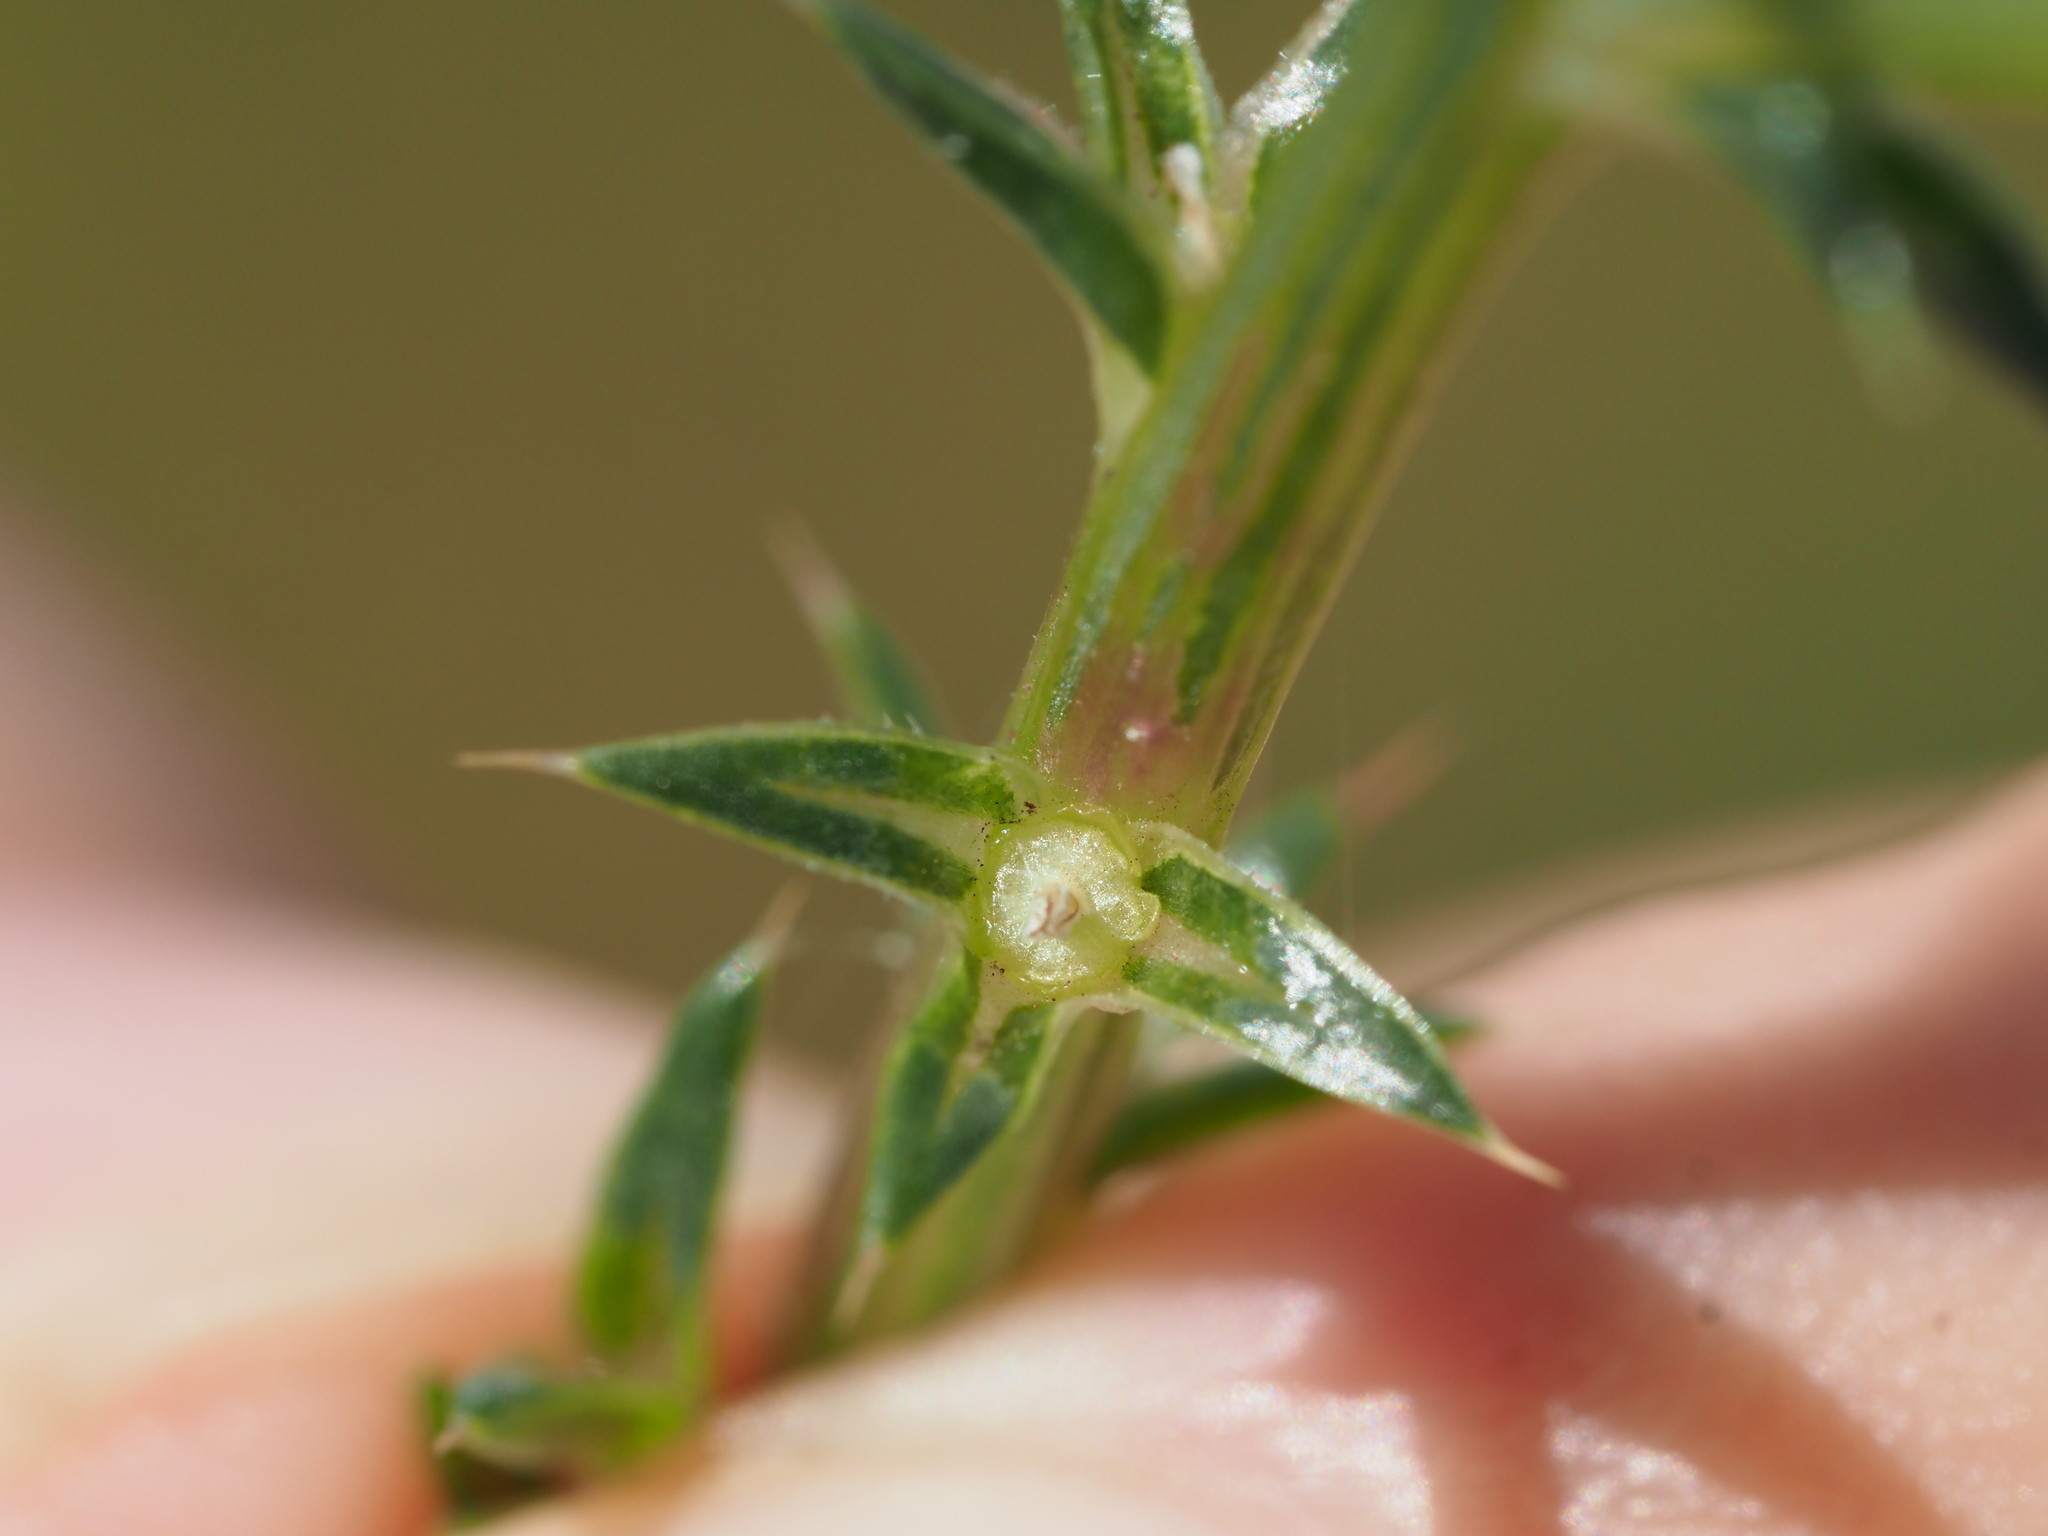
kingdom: Plantae
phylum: Tracheophyta
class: Magnoliopsida
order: Caryophyllales
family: Amaranthaceae
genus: Salsola
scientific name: Salsola tragus
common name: Prickly russian thistle
